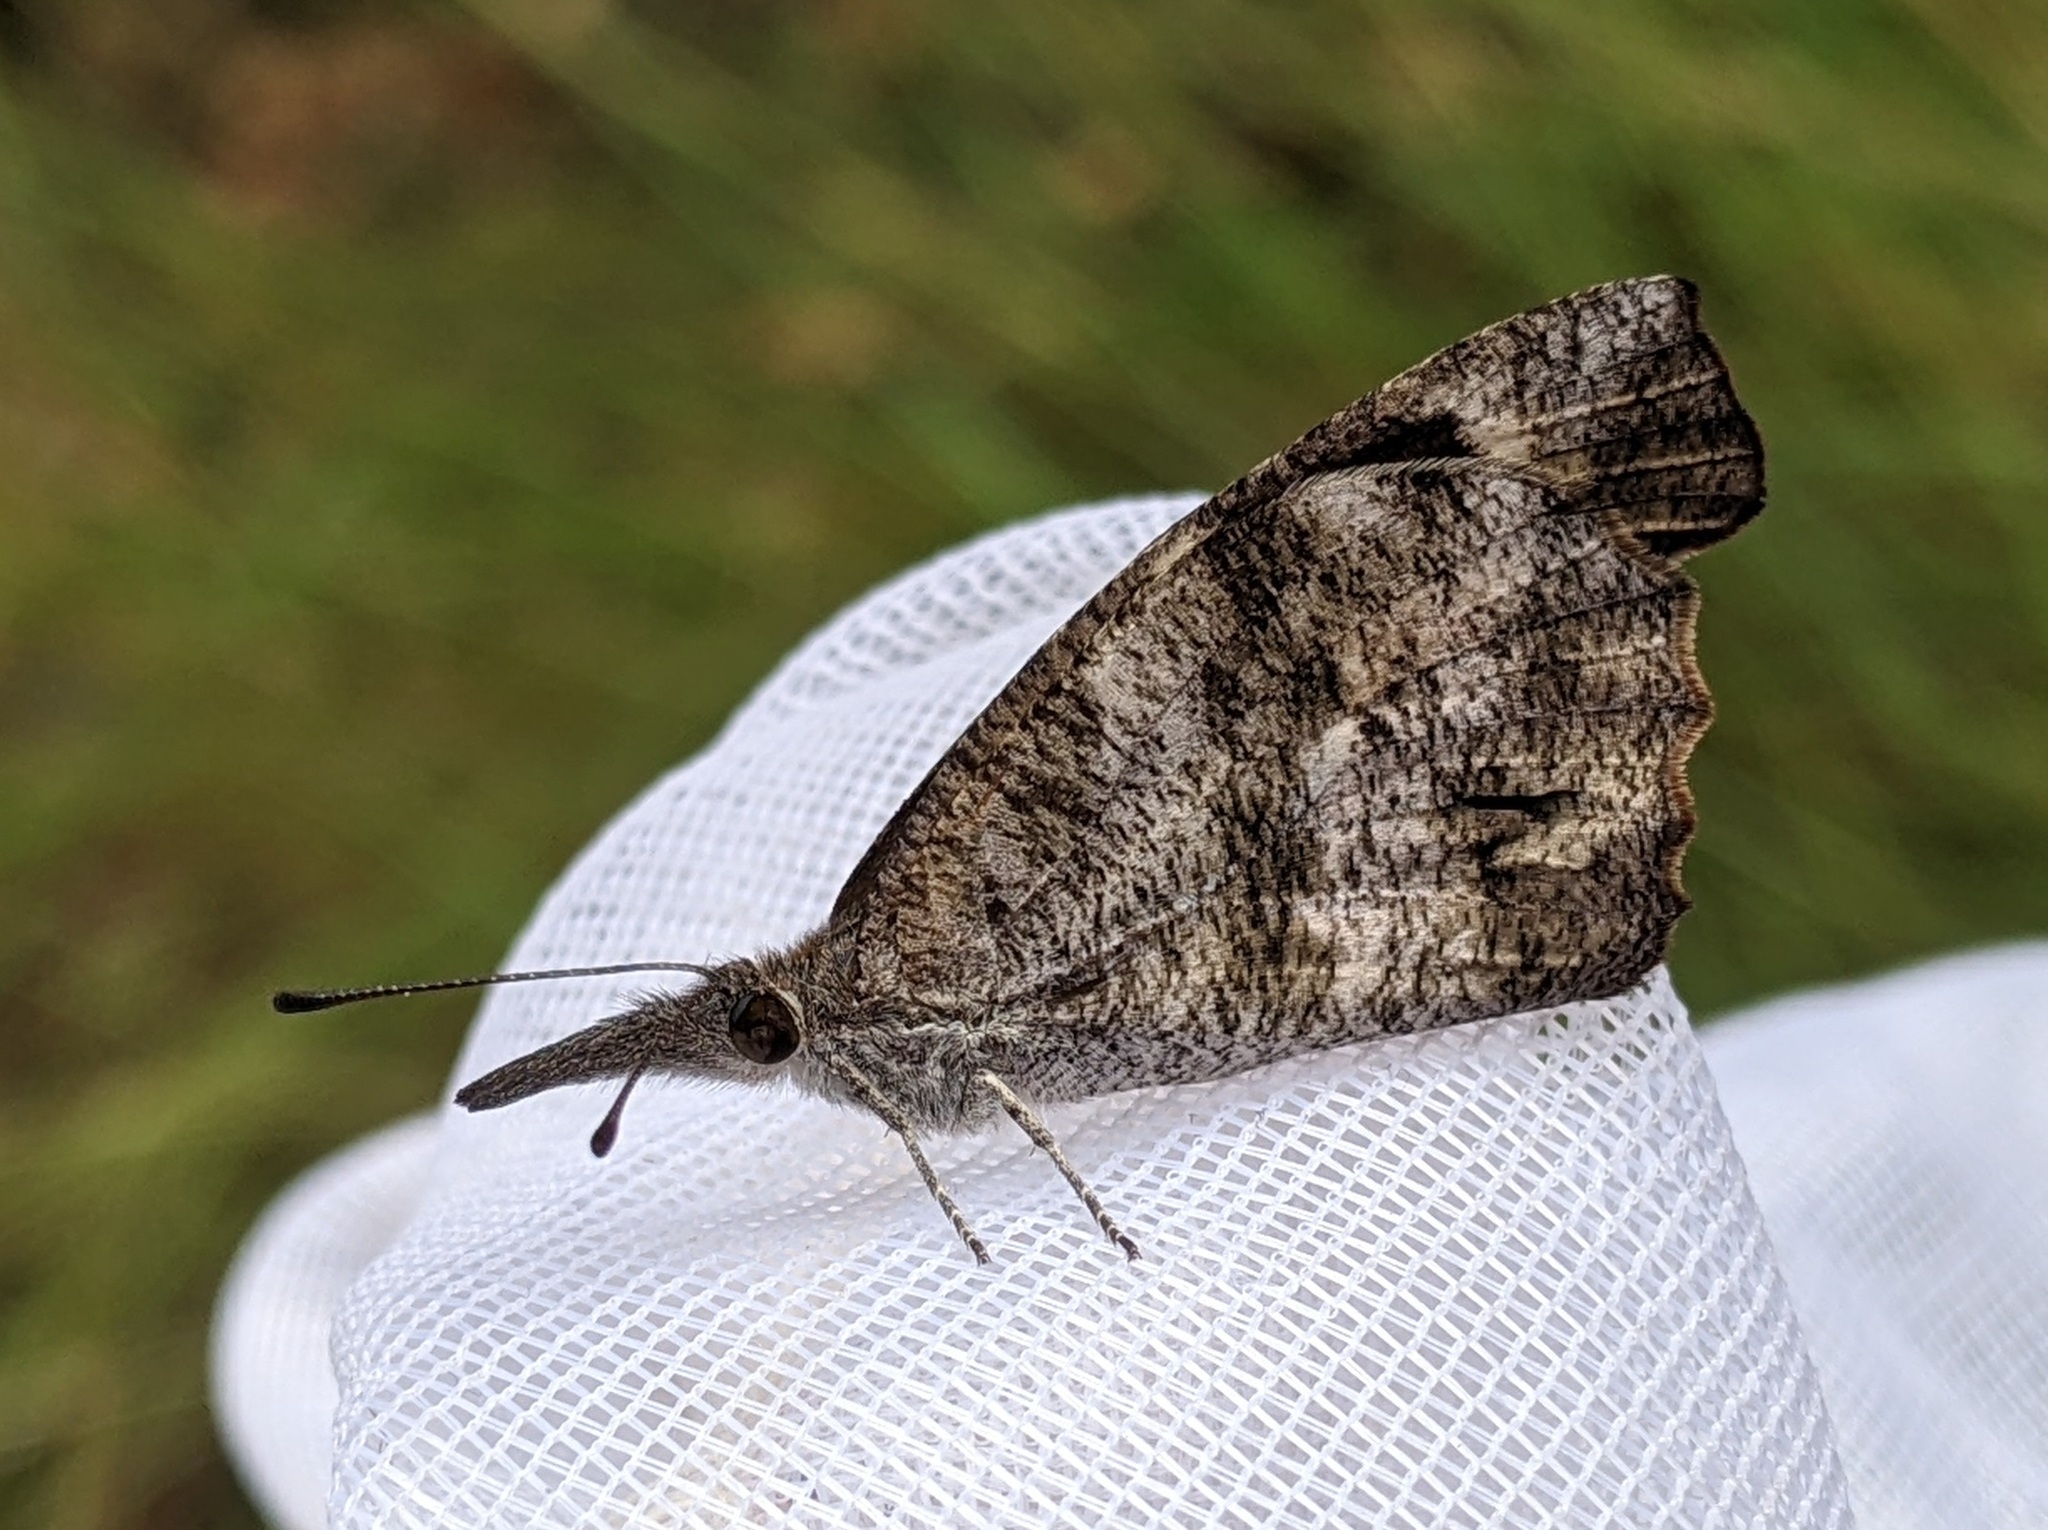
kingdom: Animalia
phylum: Arthropoda
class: Insecta
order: Lepidoptera
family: Nymphalidae
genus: Libytheana
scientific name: Libytheana carinenta
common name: American snout
